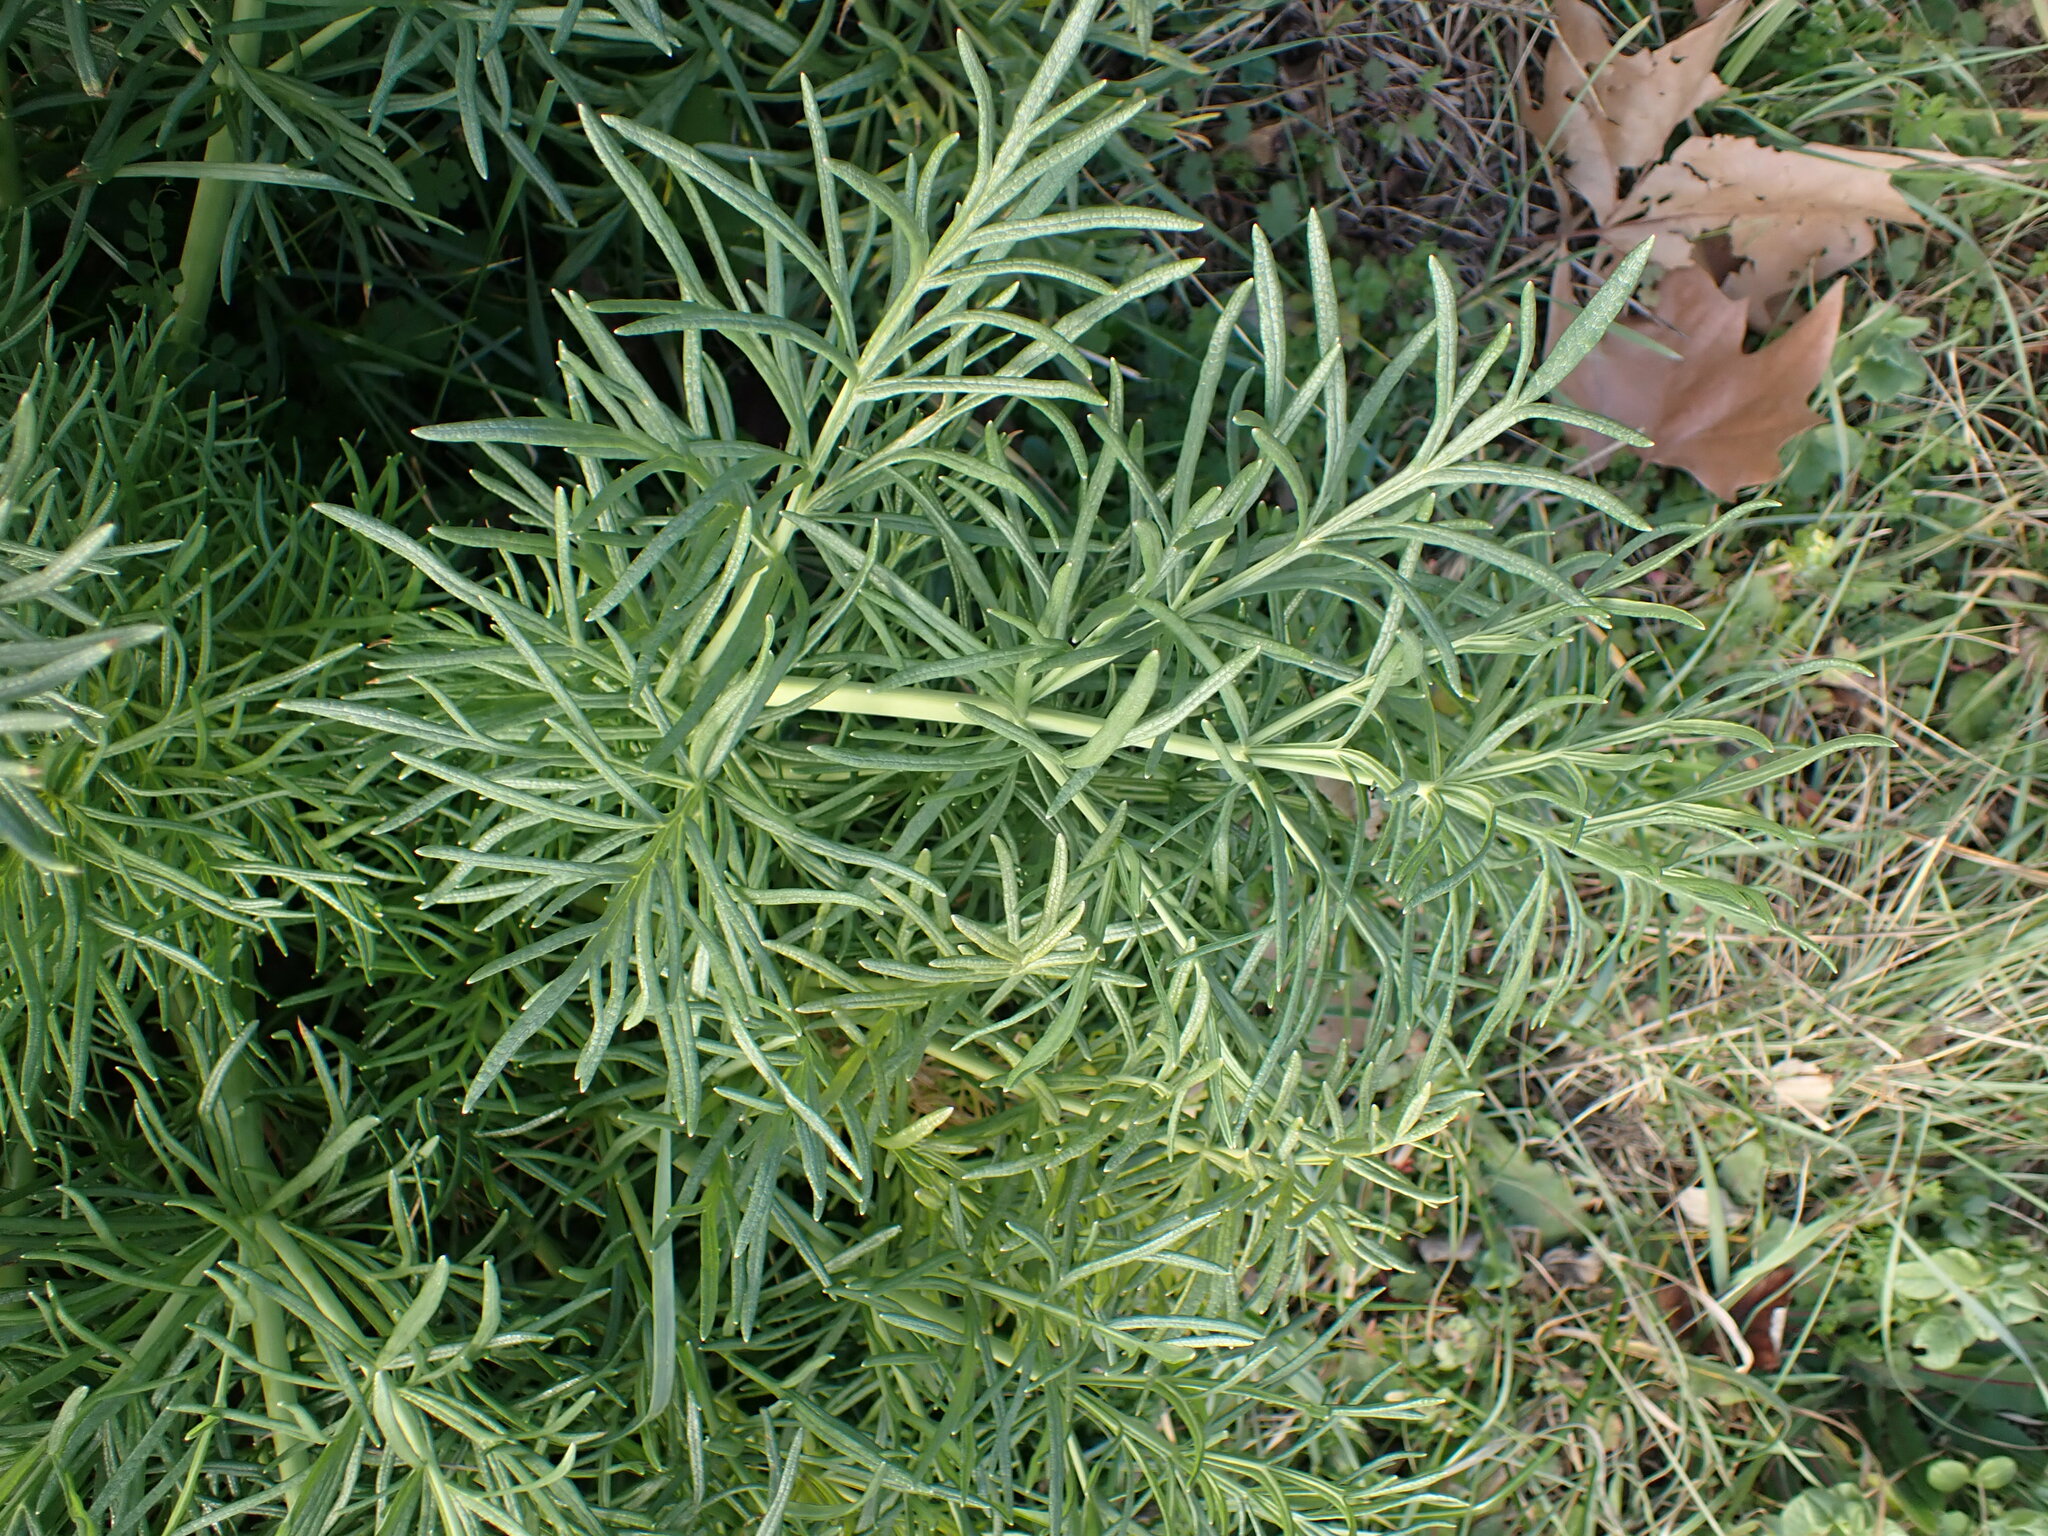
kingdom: Plantae
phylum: Tracheophyta
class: Magnoliopsida
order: Apiales
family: Apiaceae
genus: Thapsia
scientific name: Thapsia garganica
